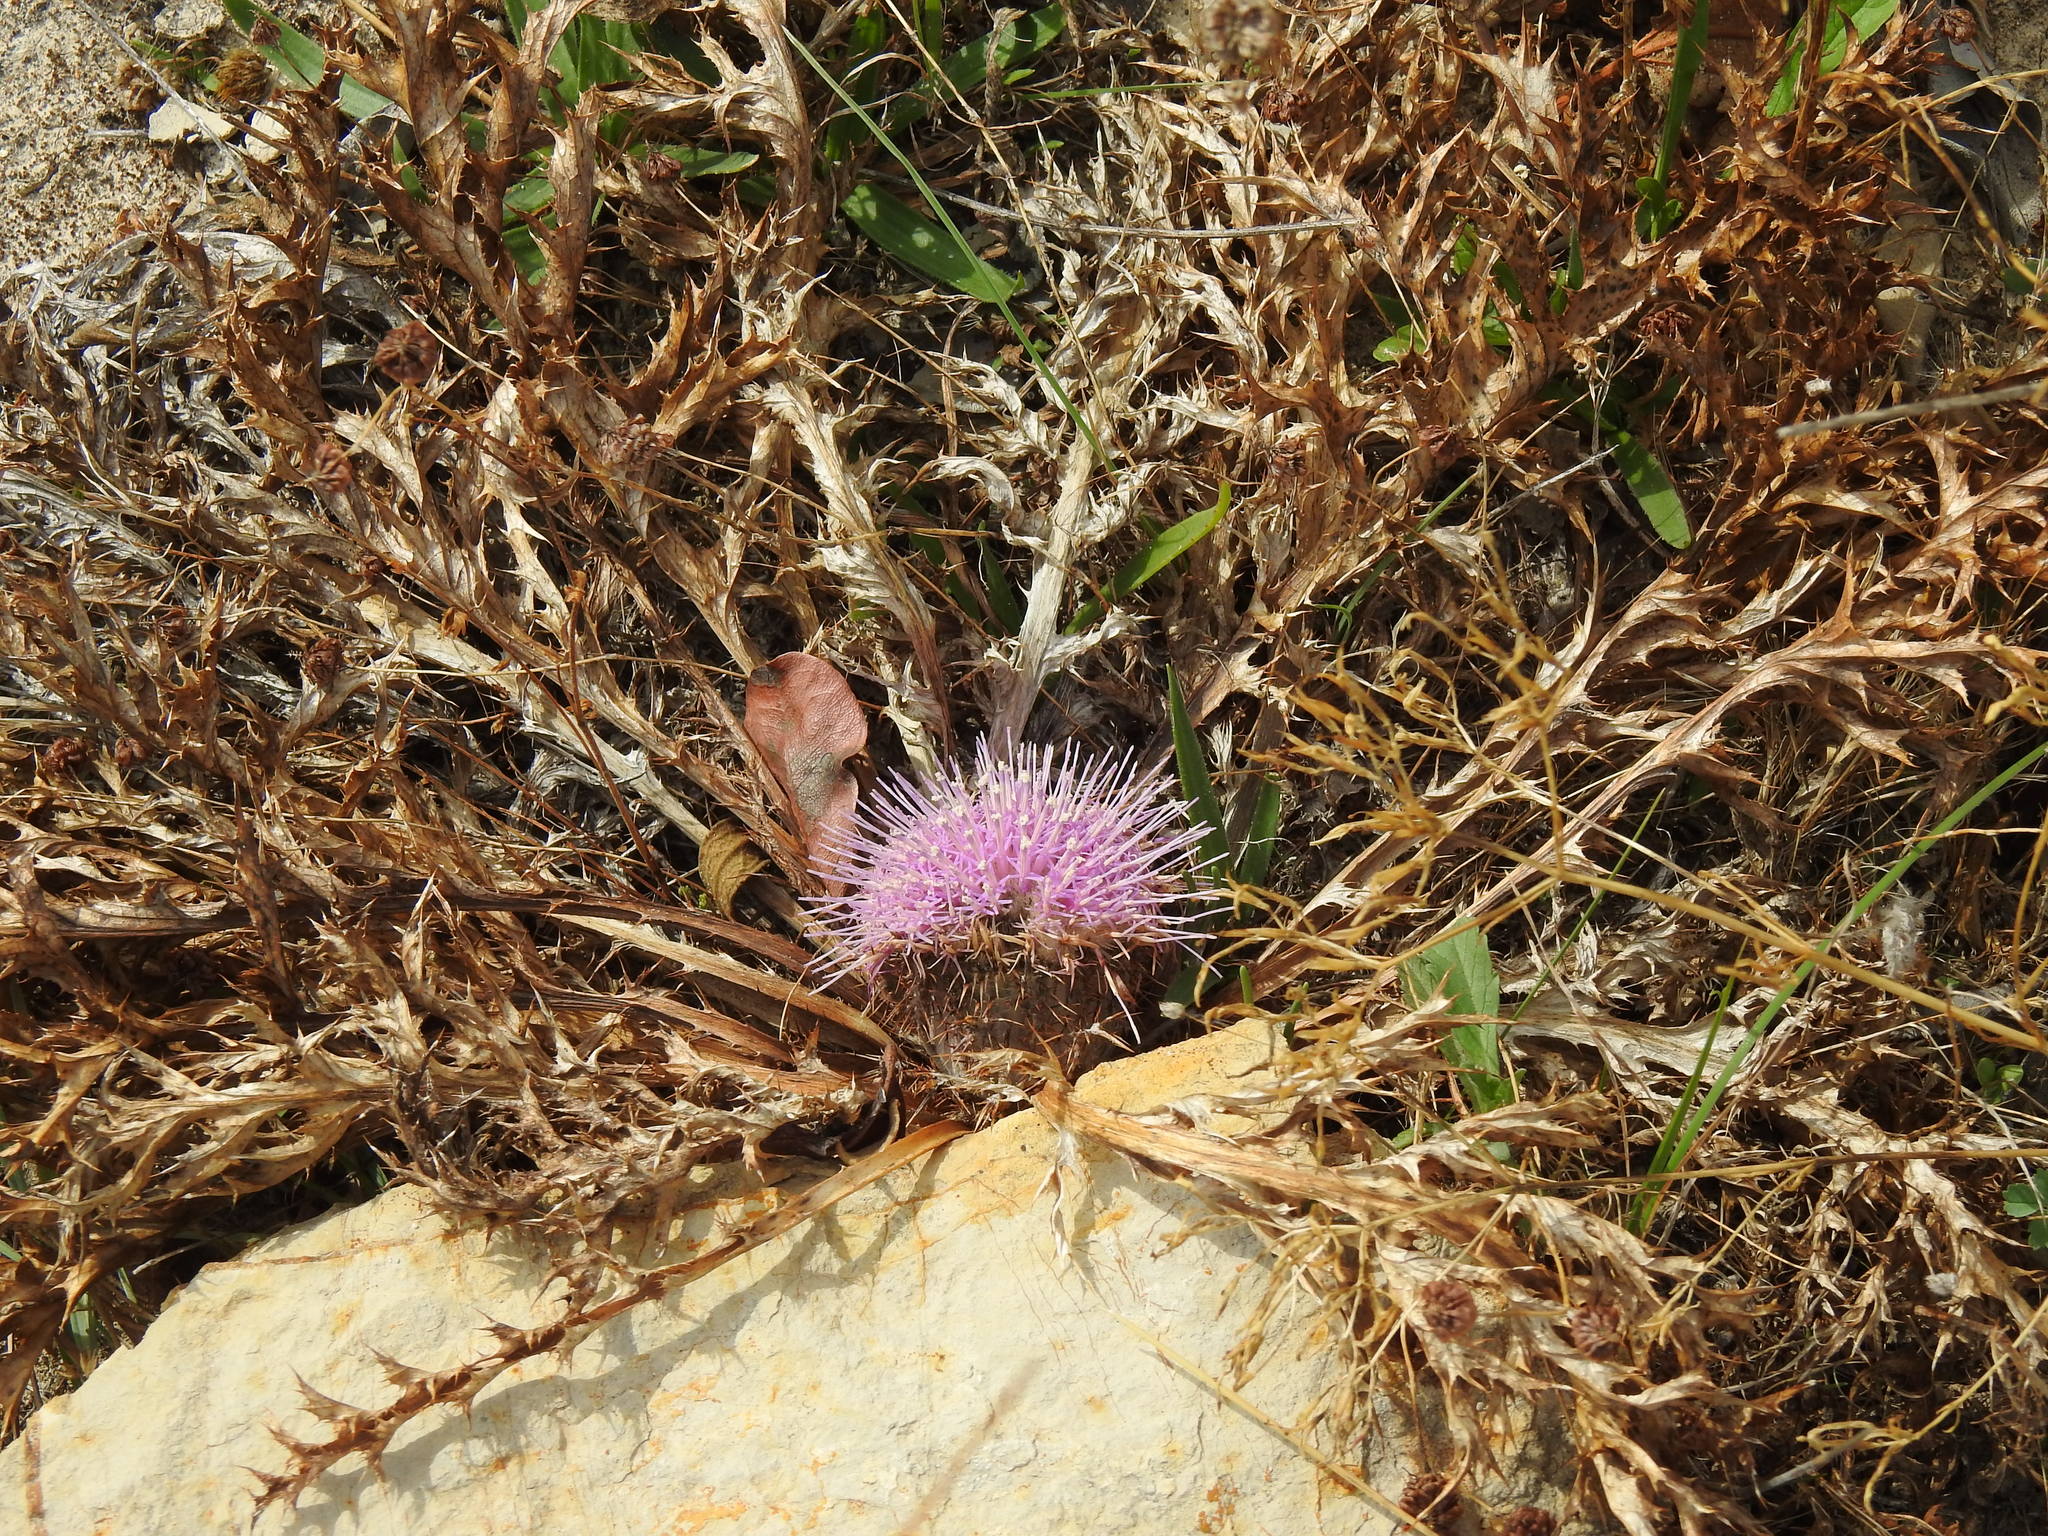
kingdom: Plantae
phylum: Tracheophyta
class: Magnoliopsida
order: Asterales
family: Asteraceae
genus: Chamaeleon
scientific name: Chamaeleon gummifer
